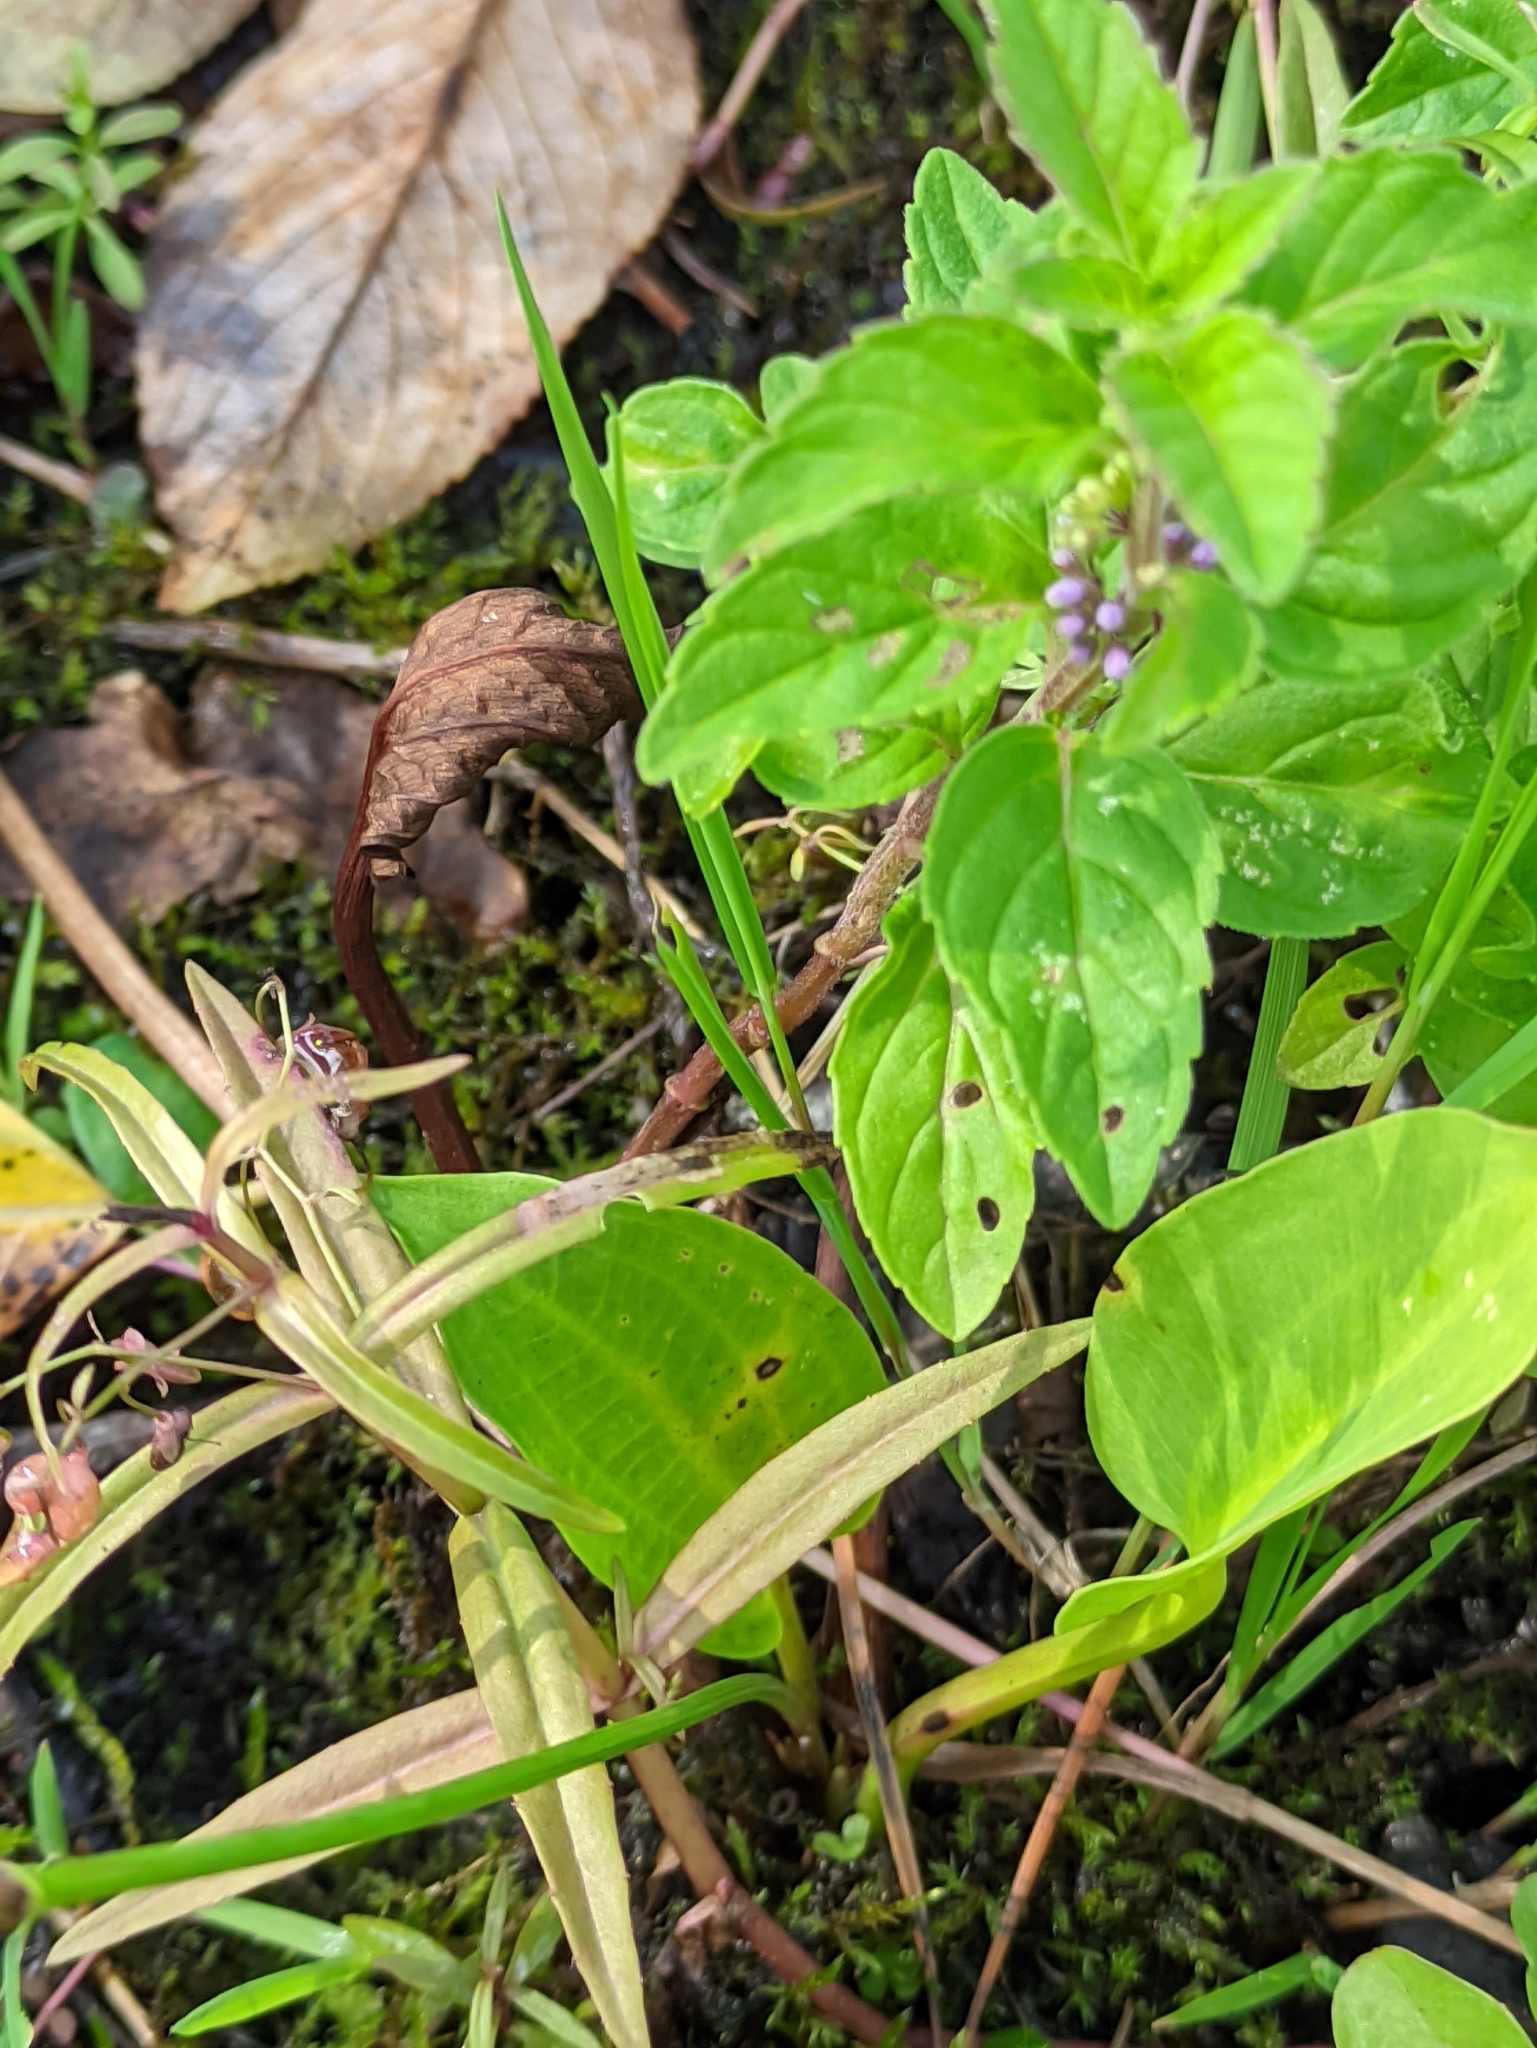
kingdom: Plantae
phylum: Tracheophyta
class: Liliopsida
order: Alismatales
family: Alismataceae
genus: Alisma
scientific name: Alisma plantago-aquatica
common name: Water-plantain
